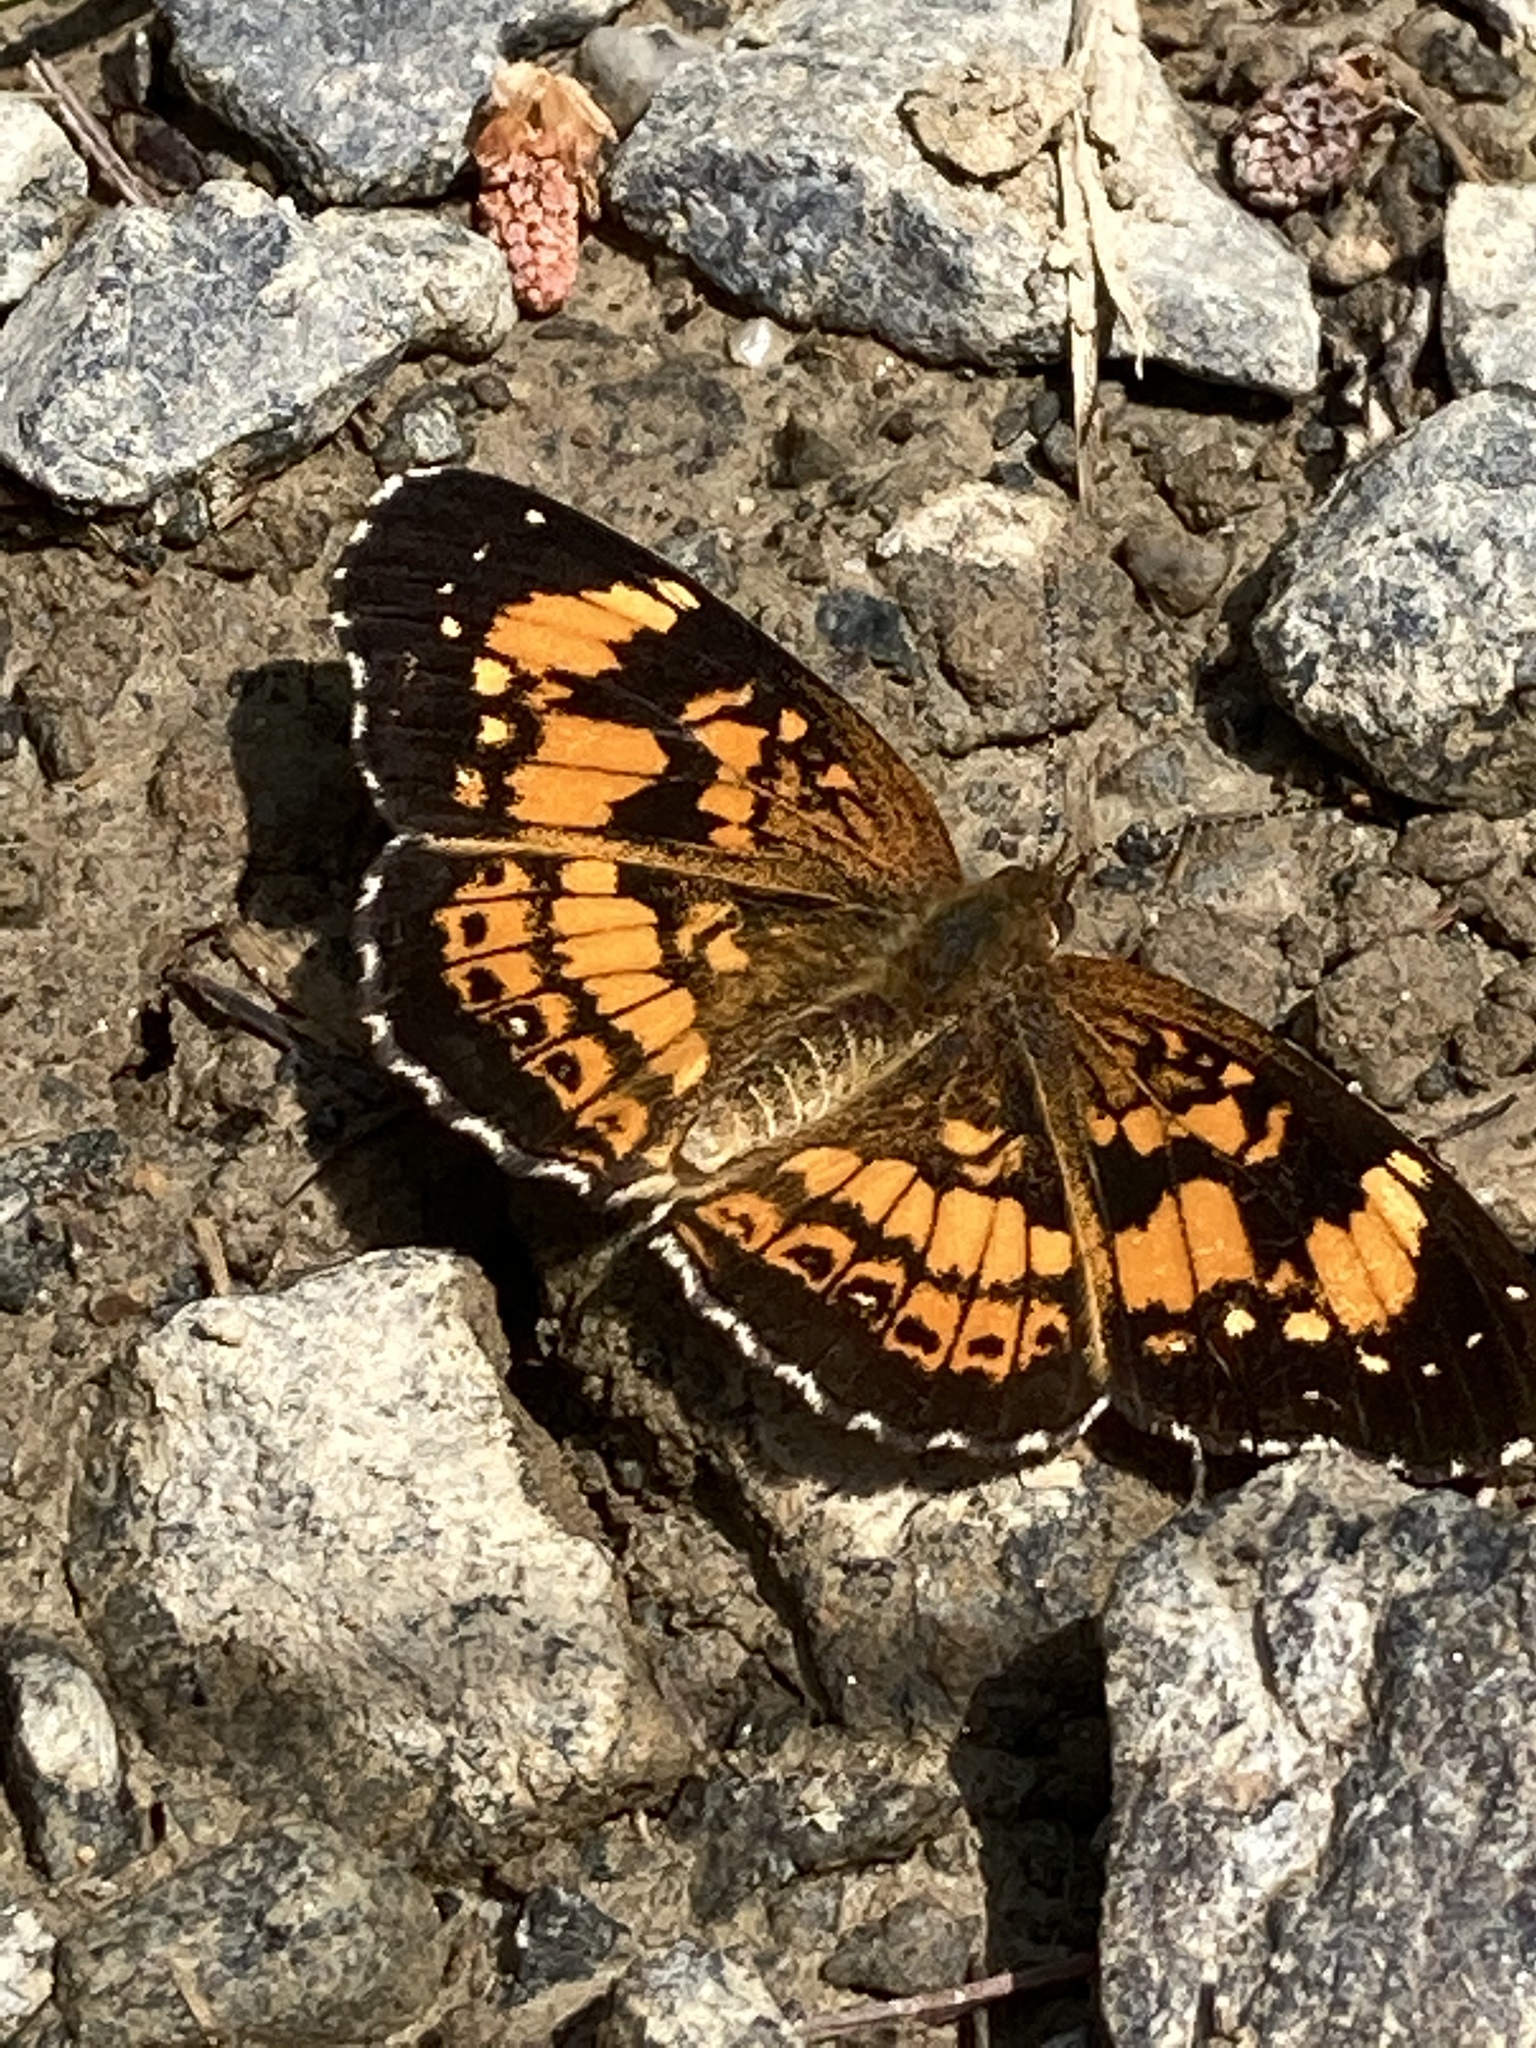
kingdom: Animalia
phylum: Arthropoda
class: Insecta
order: Lepidoptera
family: Nymphalidae
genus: Chlosyne
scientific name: Chlosyne nycteis
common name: Silvery checkerspot
